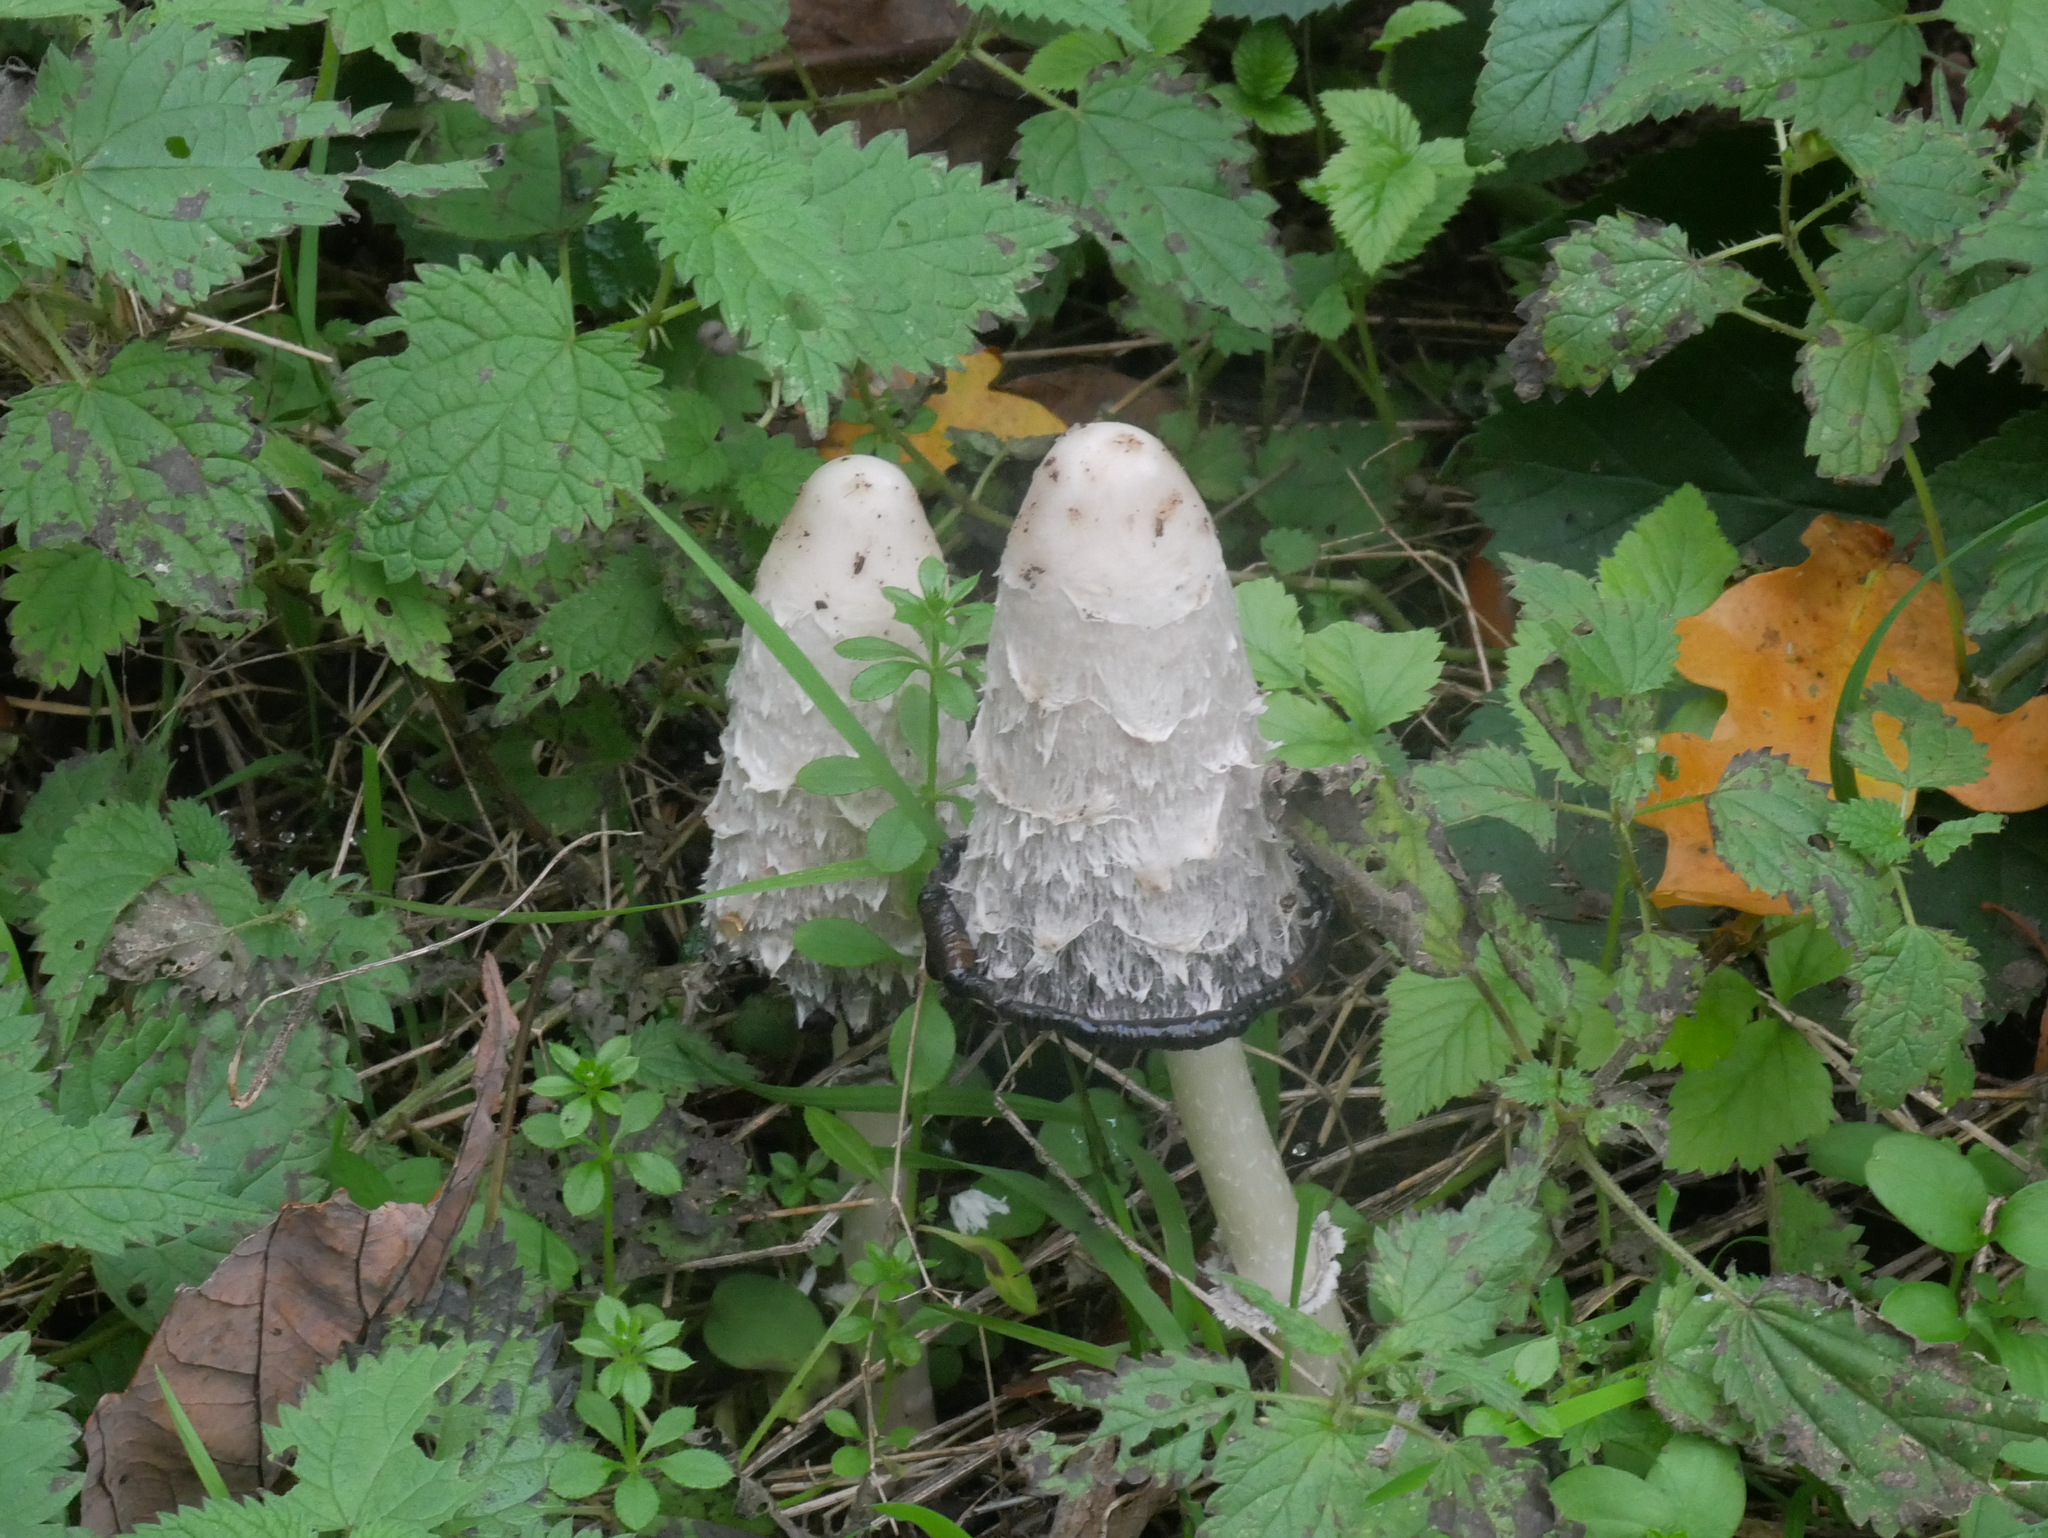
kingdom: Fungi
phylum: Basidiomycota
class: Agaricomycetes
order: Agaricales
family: Agaricaceae
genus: Coprinus
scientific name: Coprinus comatus
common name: Lawyer's wig
